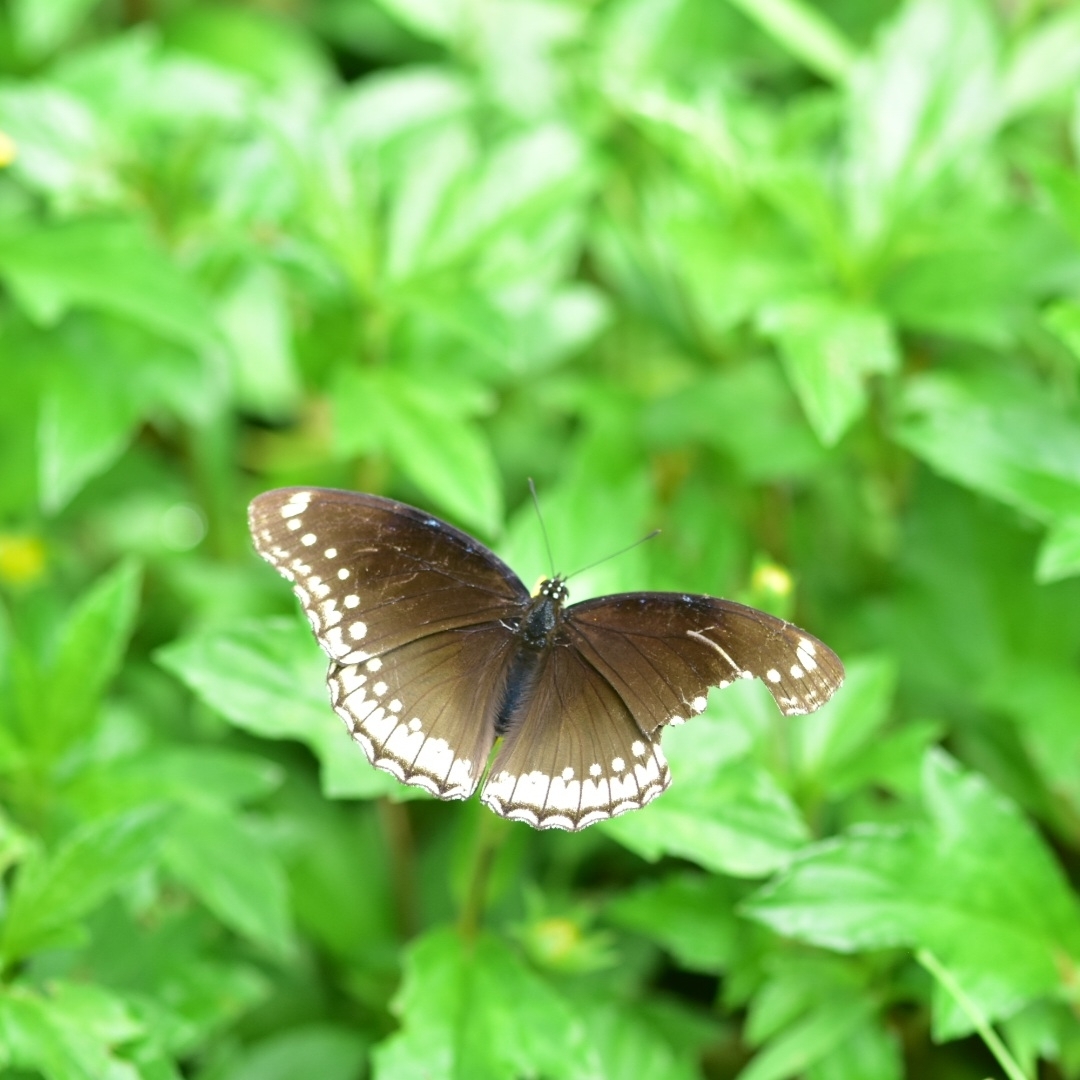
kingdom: Animalia
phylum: Arthropoda
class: Insecta
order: Lepidoptera
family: Nymphalidae
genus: Hypolimnas
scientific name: Hypolimnas bolina
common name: Great eggfly
